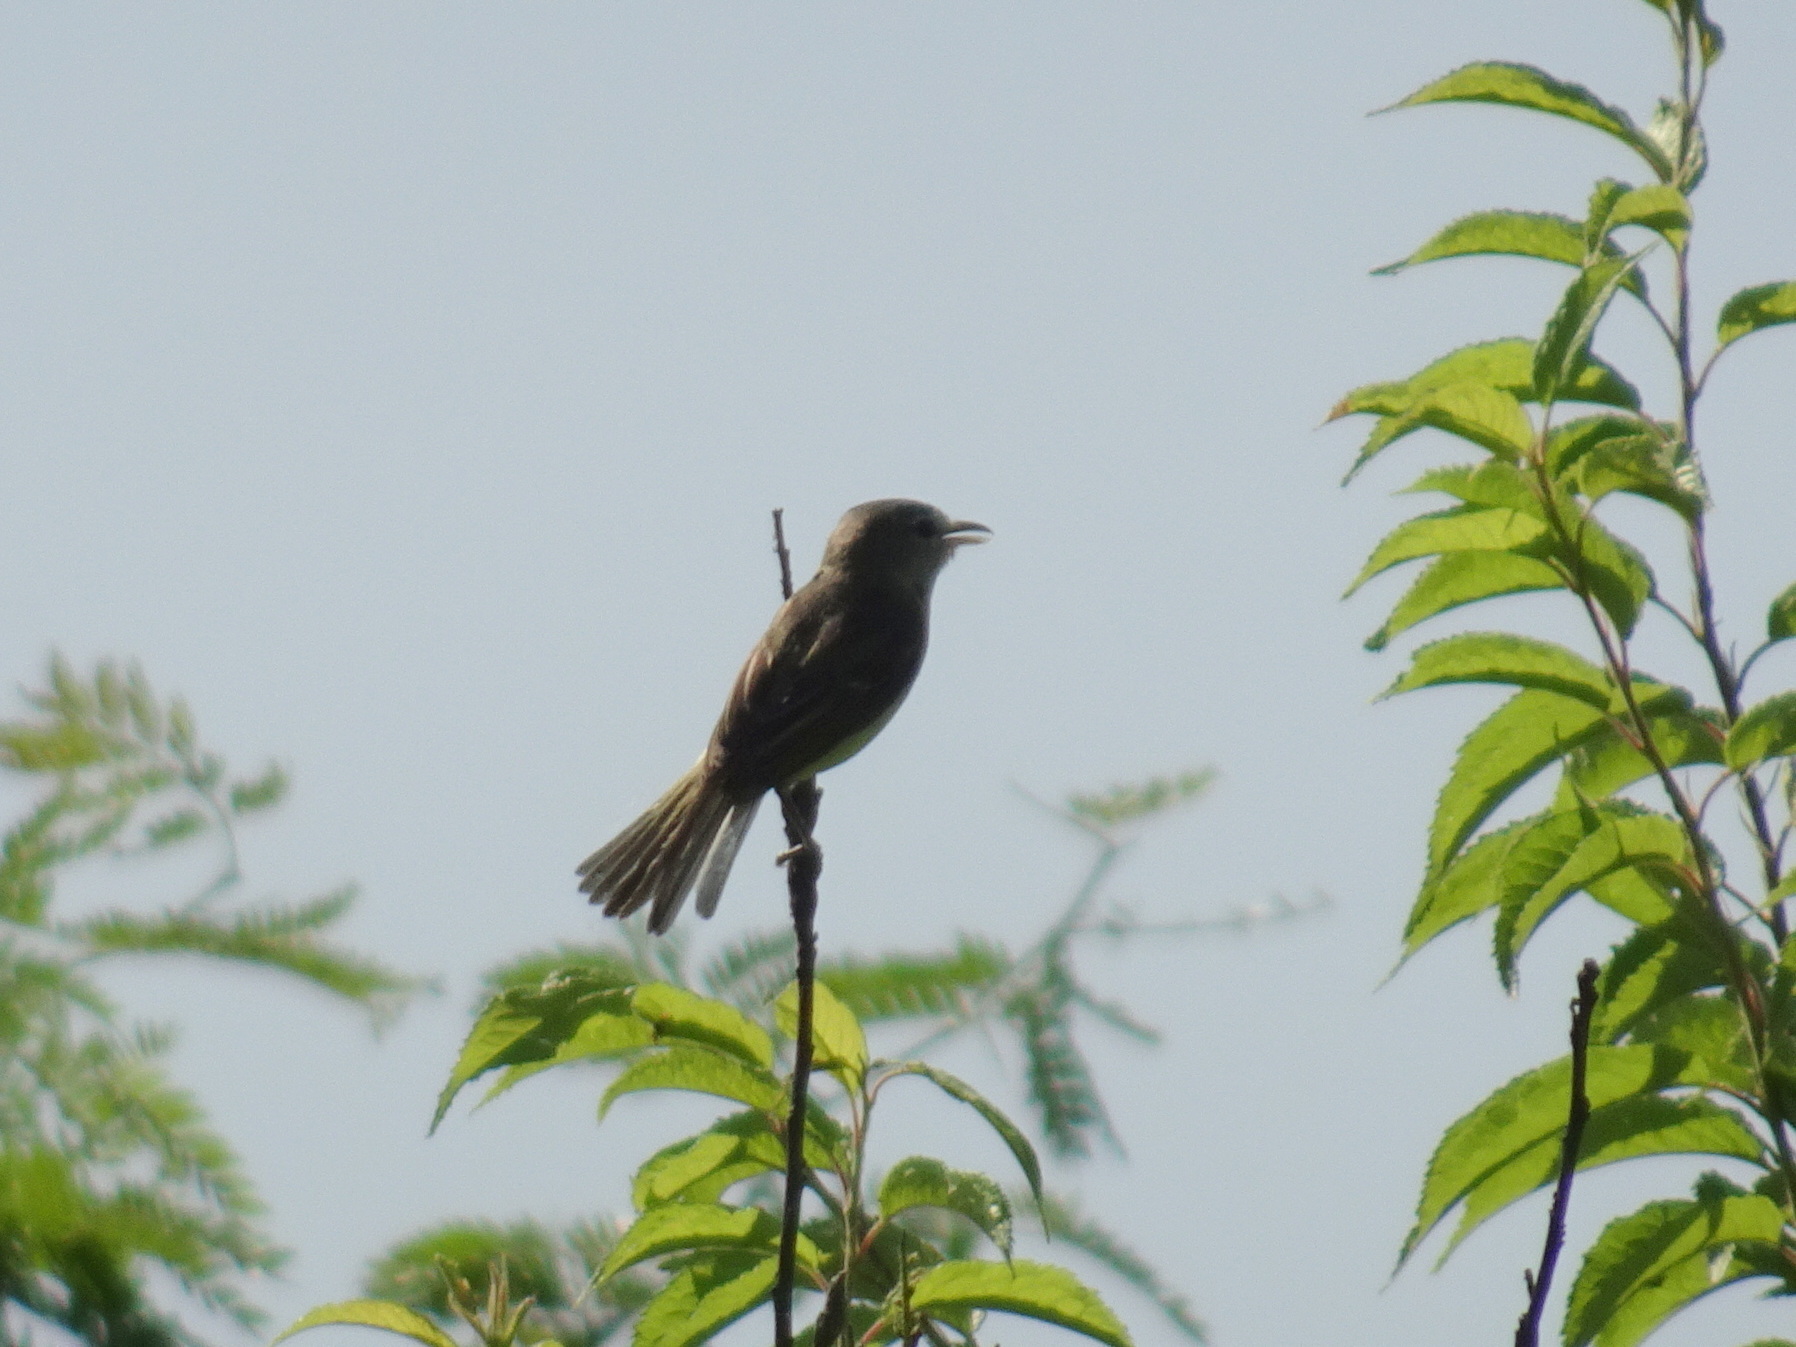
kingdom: Animalia
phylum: Chordata
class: Aves
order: Passeriformes
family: Vireonidae
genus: Vireo
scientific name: Vireo bellii
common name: Bell's vireo
